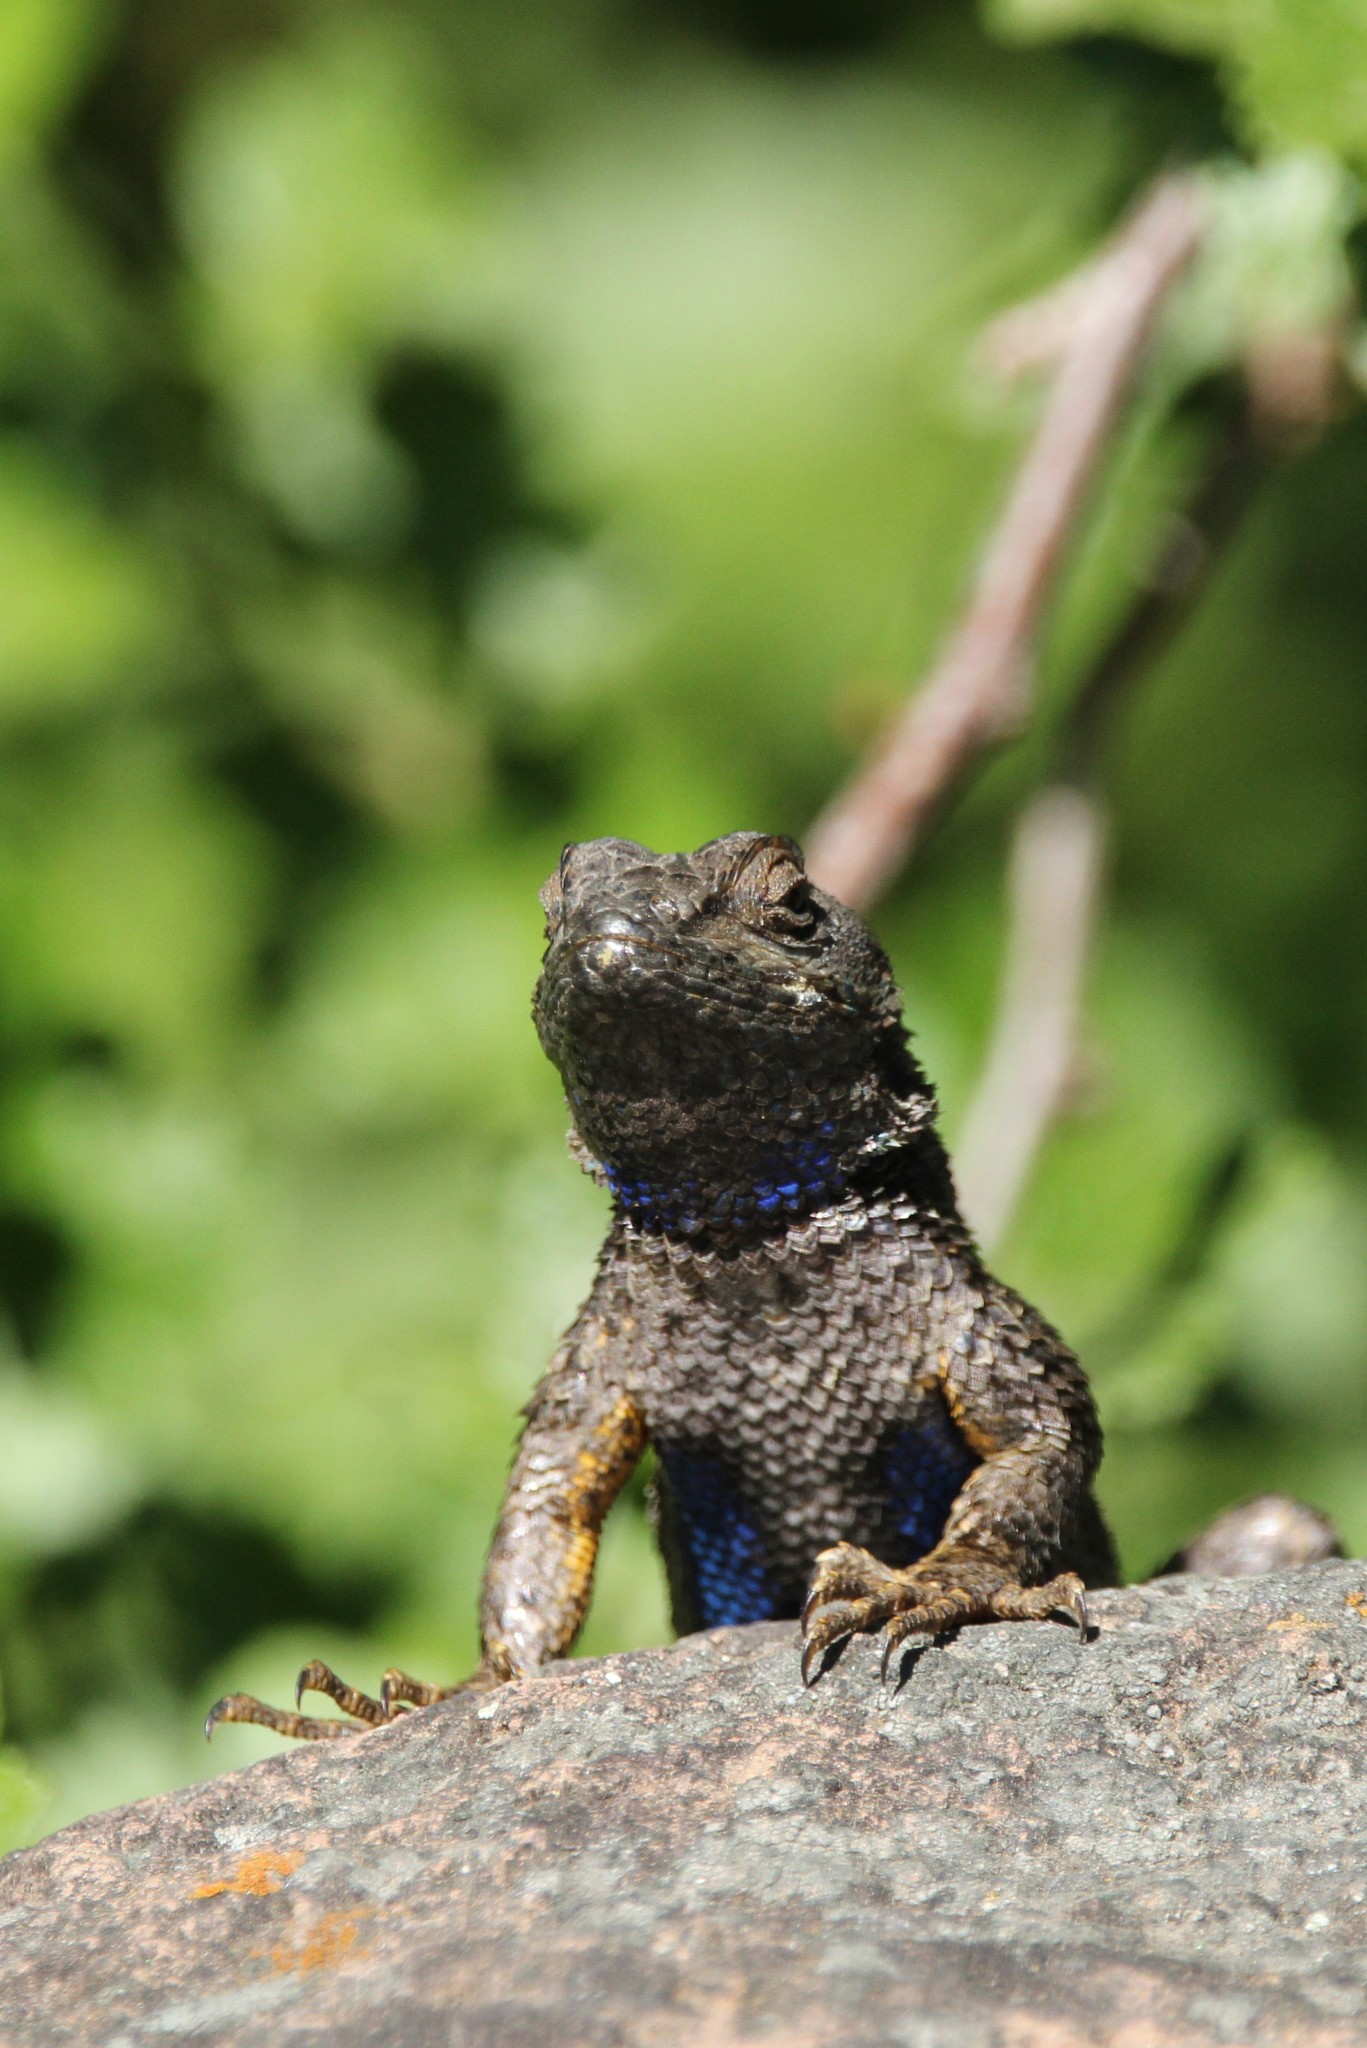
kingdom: Animalia
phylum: Chordata
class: Squamata
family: Phrynosomatidae
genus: Sceloporus
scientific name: Sceloporus occidentalis
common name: Western fence lizard
